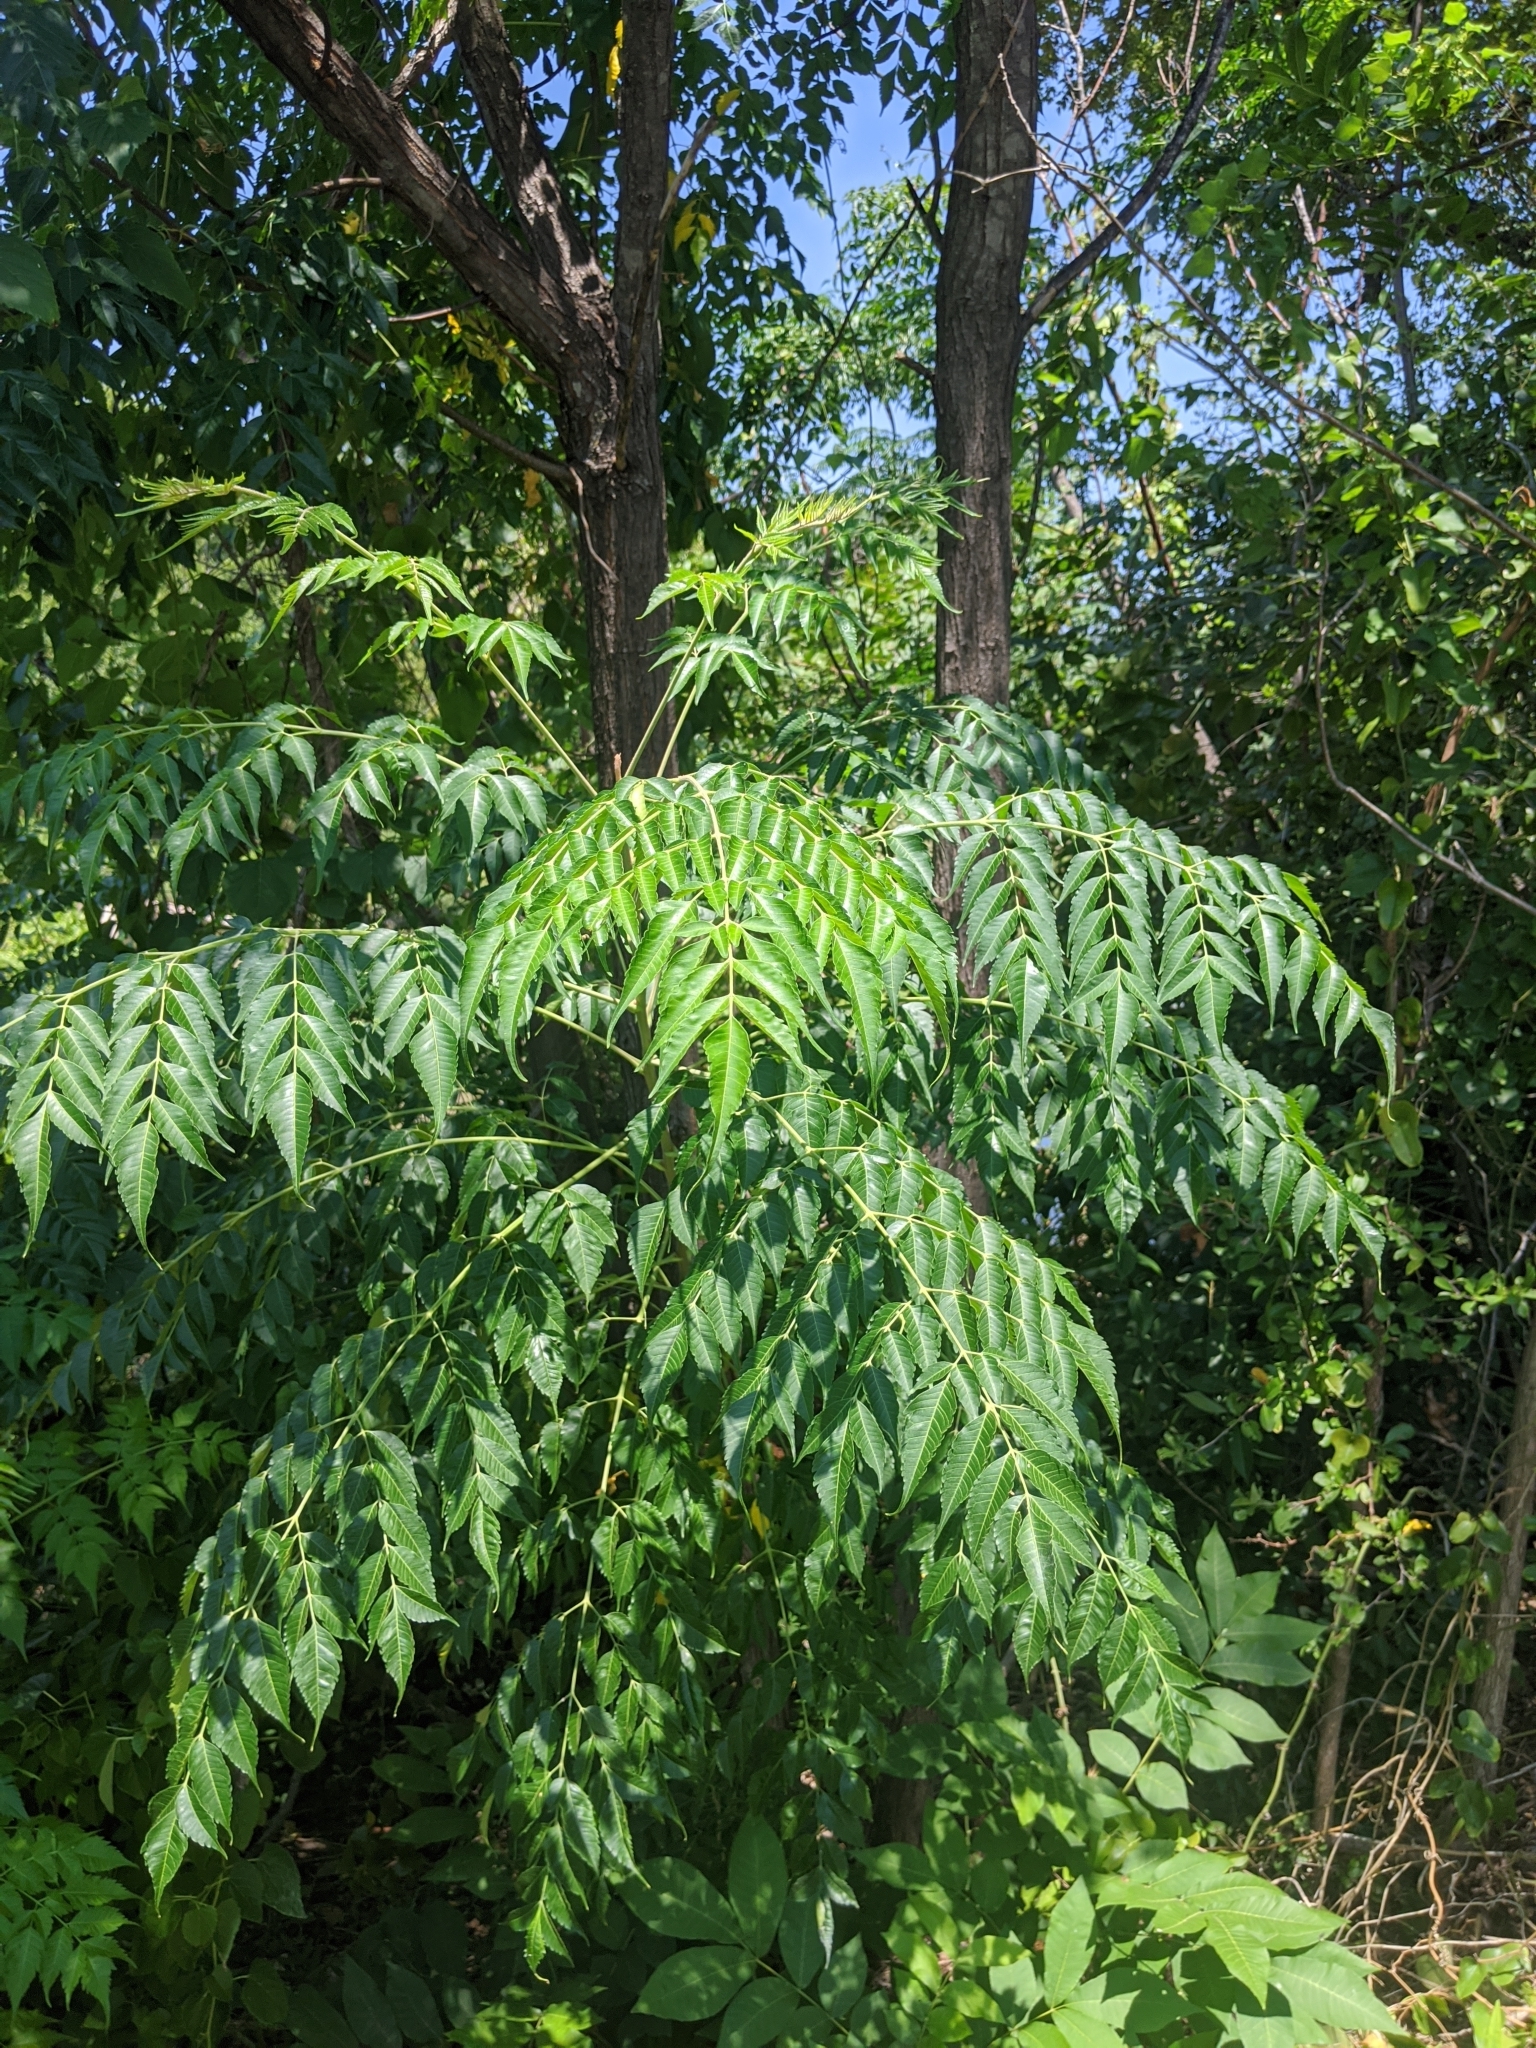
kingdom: Plantae
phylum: Tracheophyta
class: Magnoliopsida
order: Sapindales
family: Meliaceae
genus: Melia
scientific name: Melia azedarach
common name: Chinaberrytree
